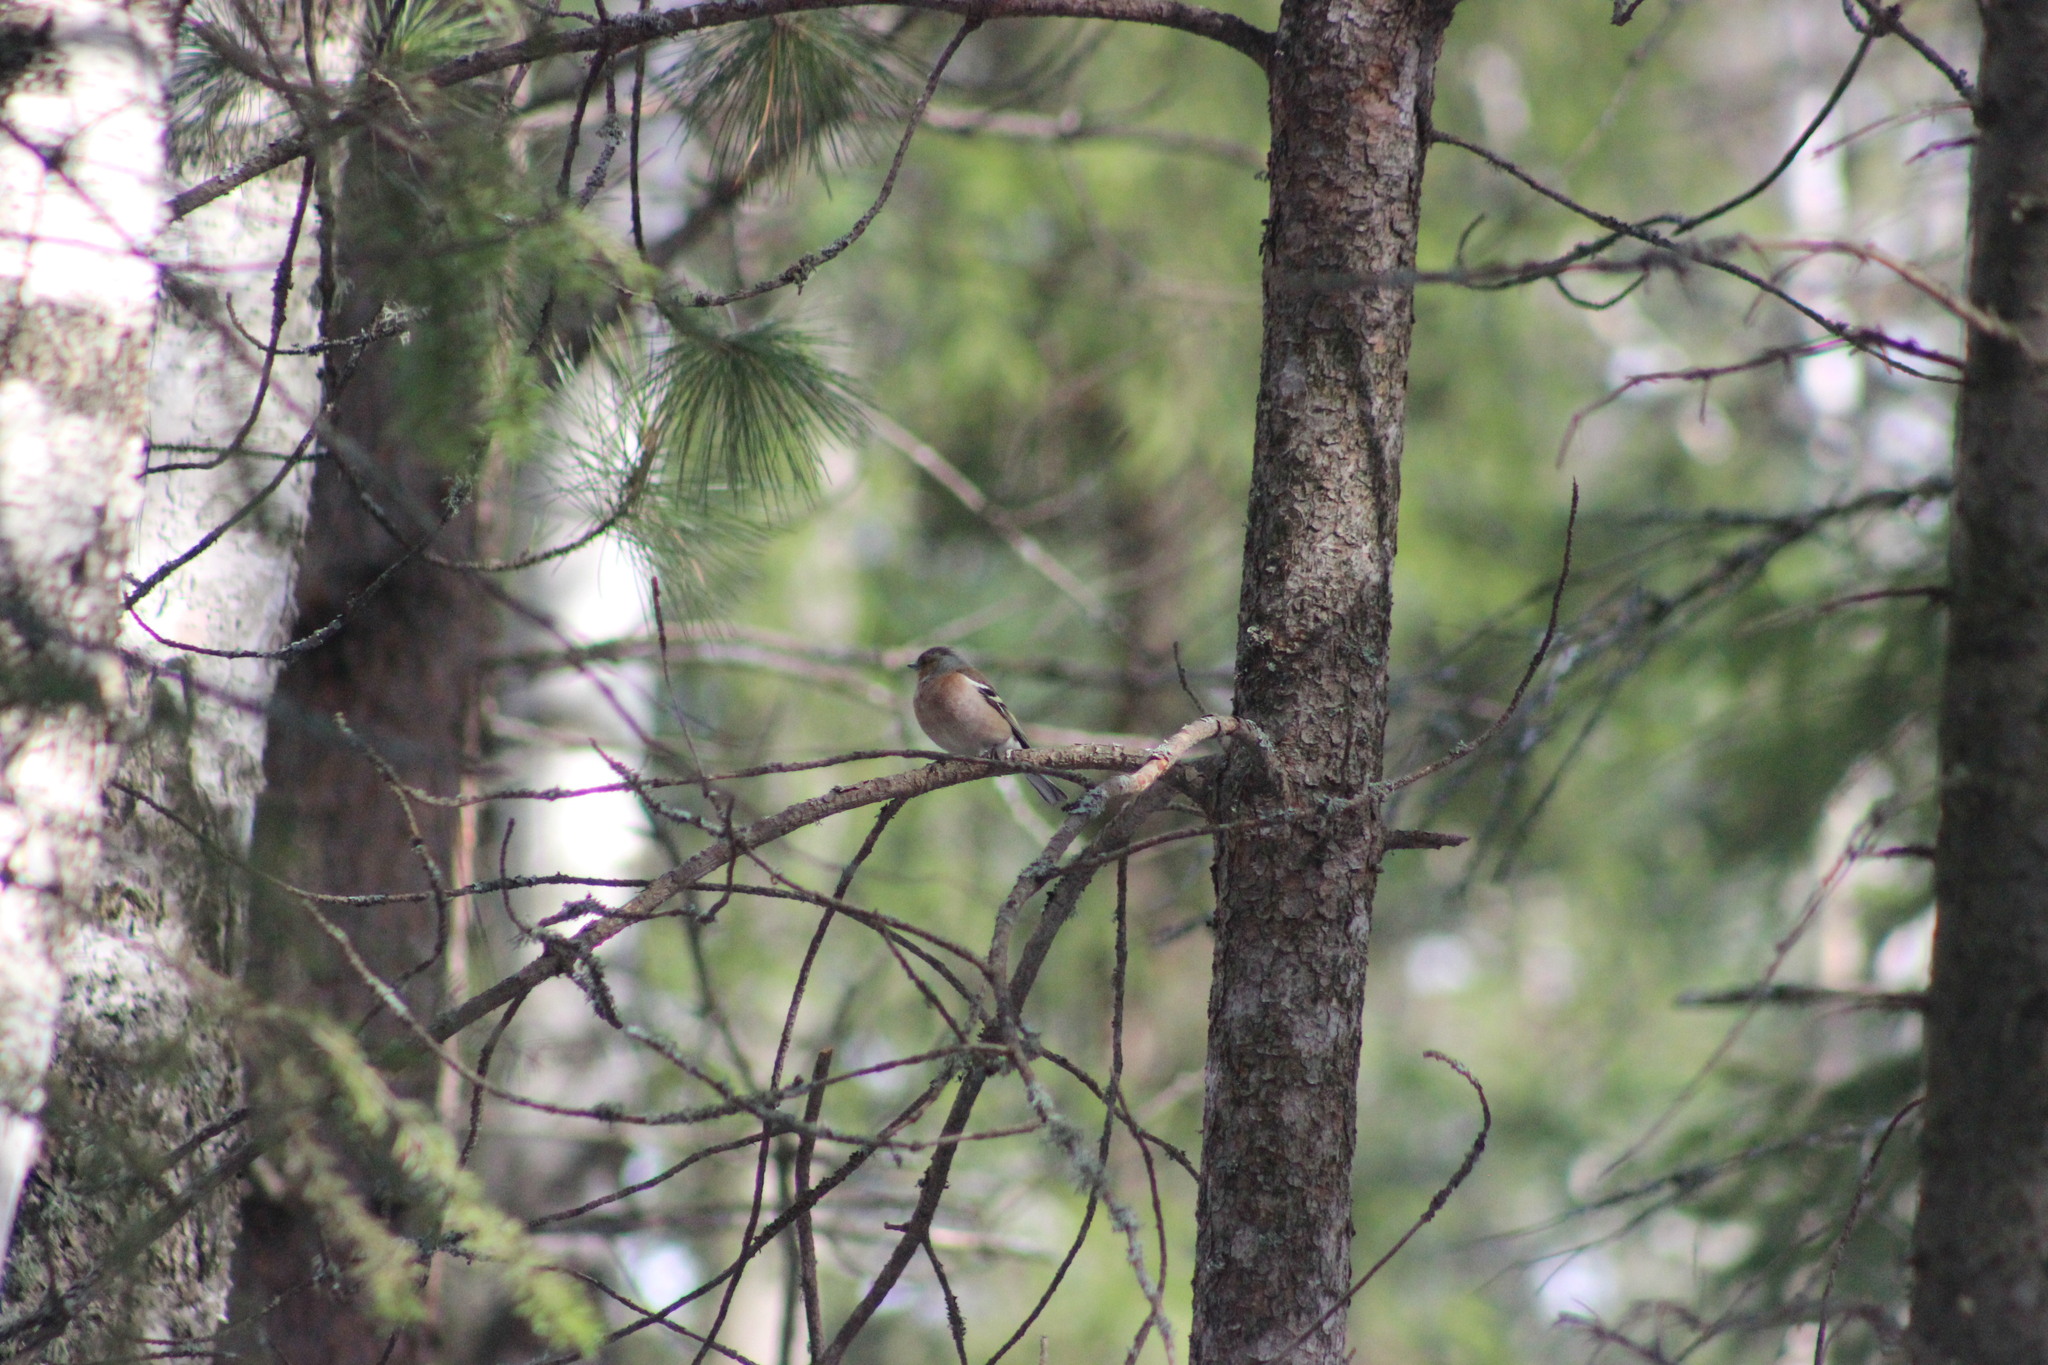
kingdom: Animalia
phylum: Chordata
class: Aves
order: Passeriformes
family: Fringillidae
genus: Fringilla
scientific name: Fringilla coelebs
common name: Common chaffinch
